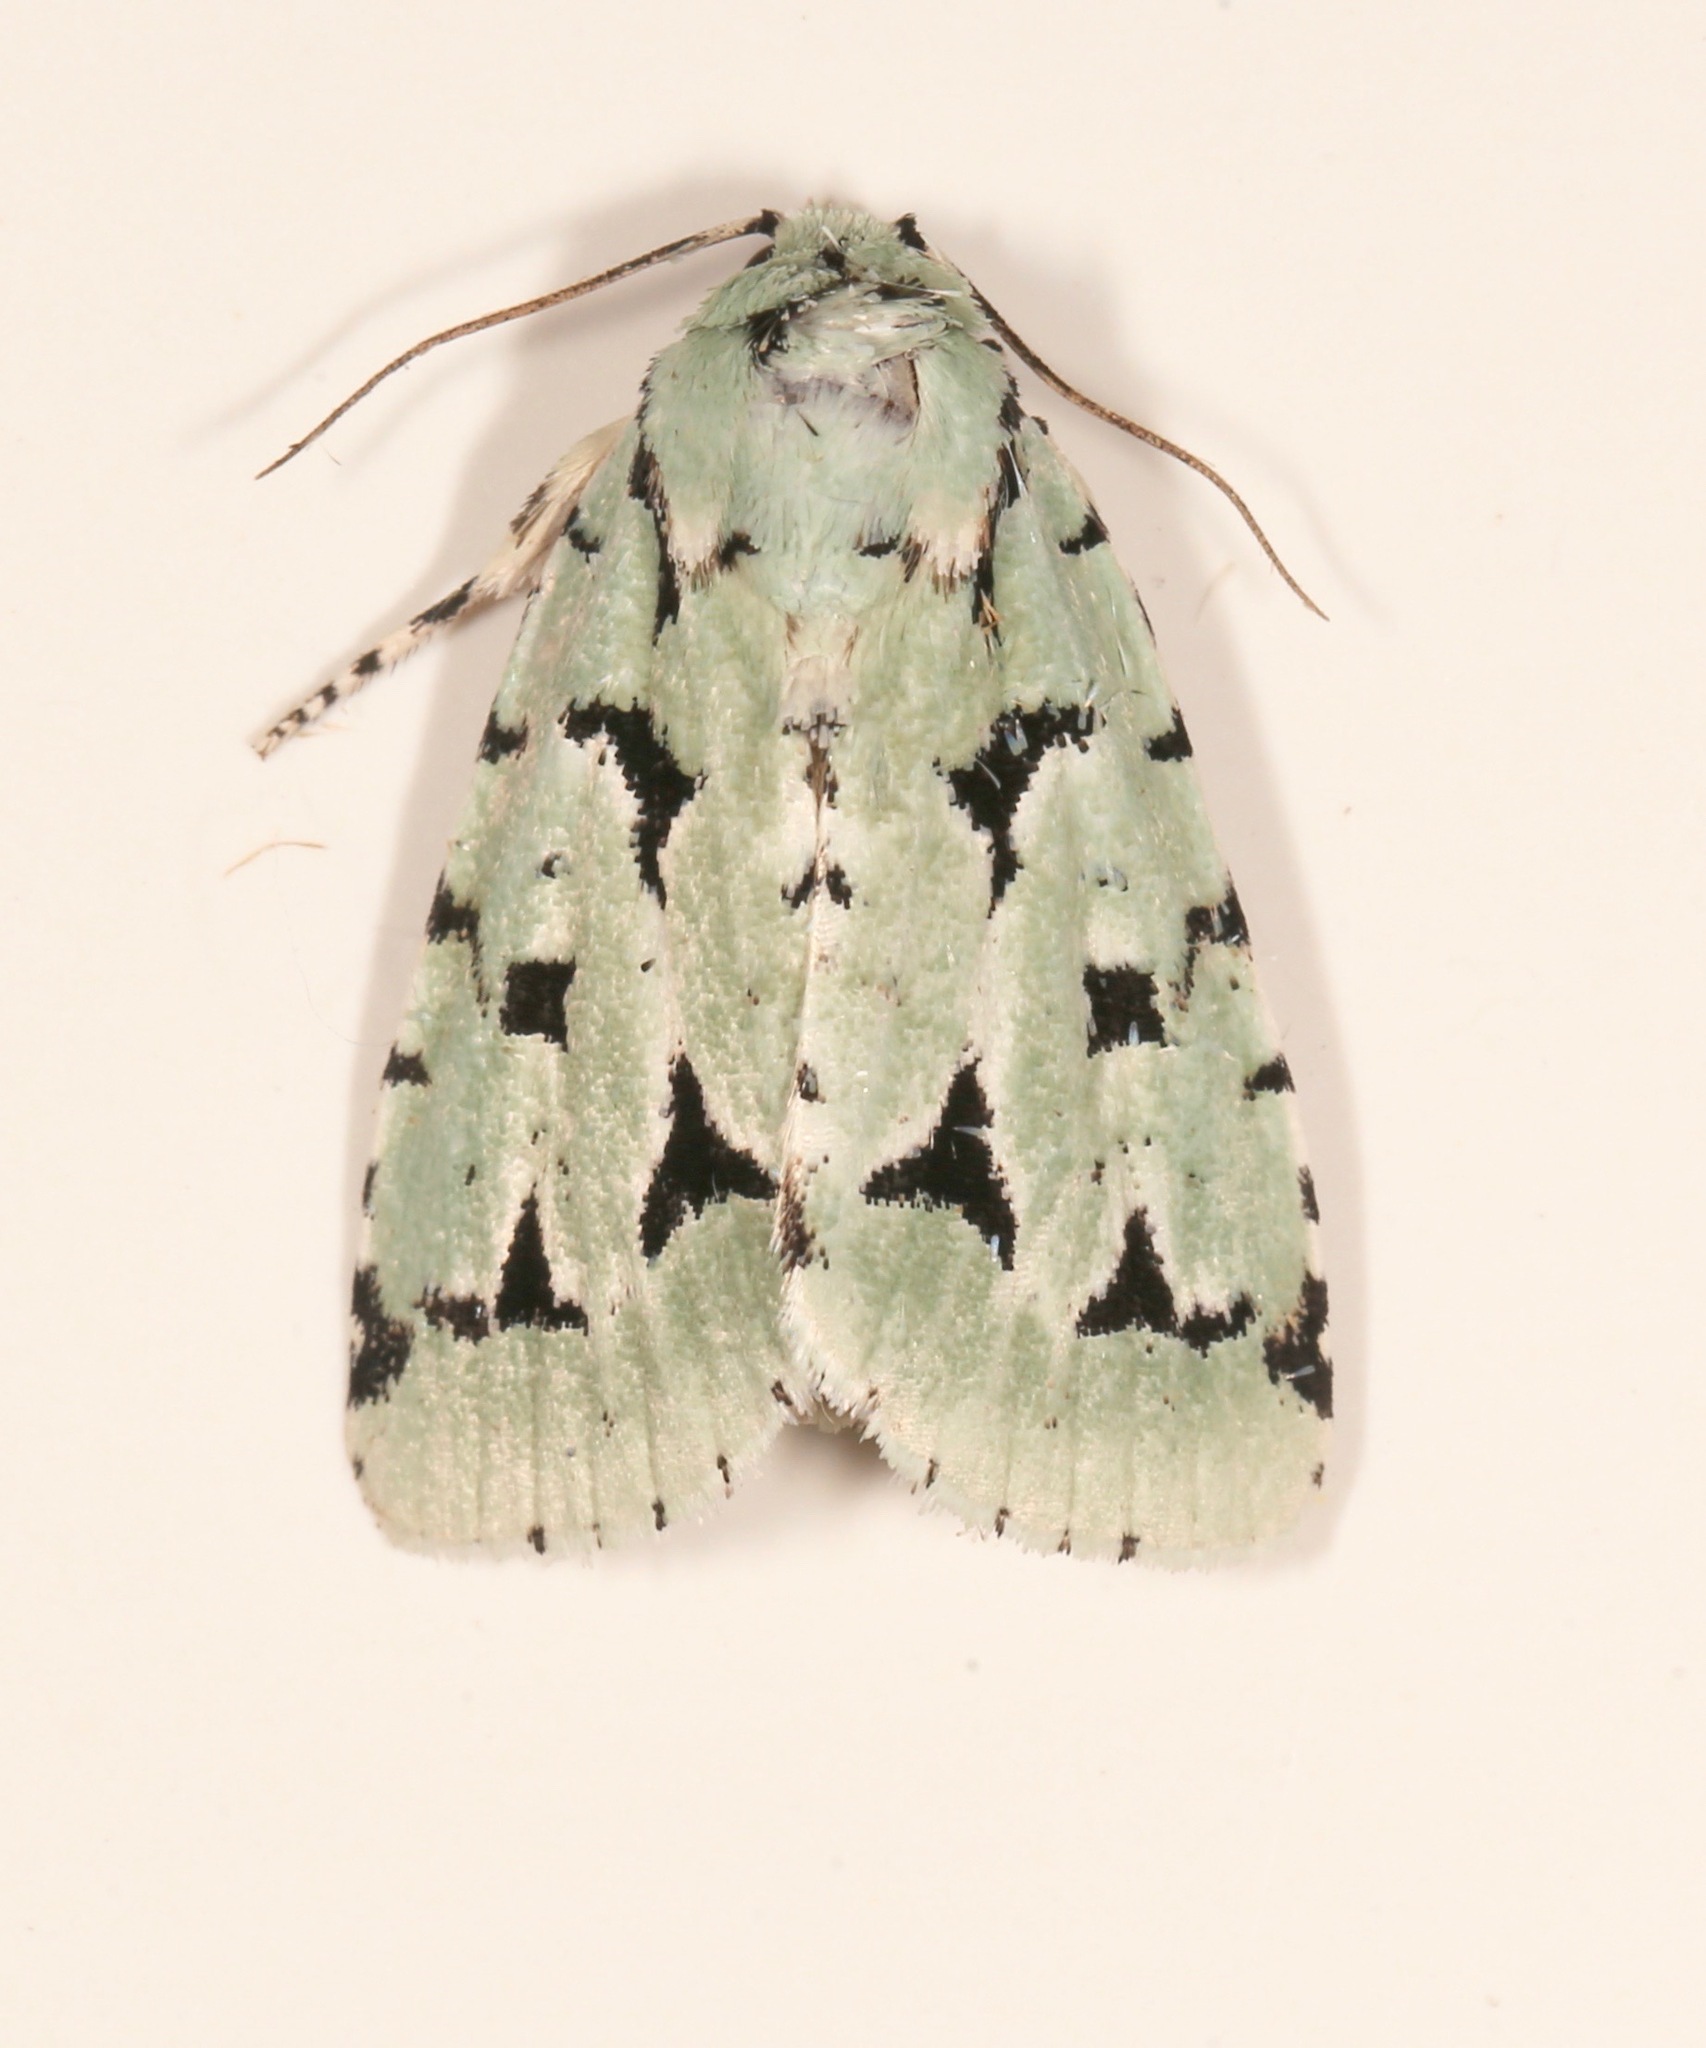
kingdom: Animalia
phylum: Arthropoda
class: Insecta
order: Lepidoptera
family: Noctuidae
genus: Acronicta
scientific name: Acronicta fallax
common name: Green marvel
